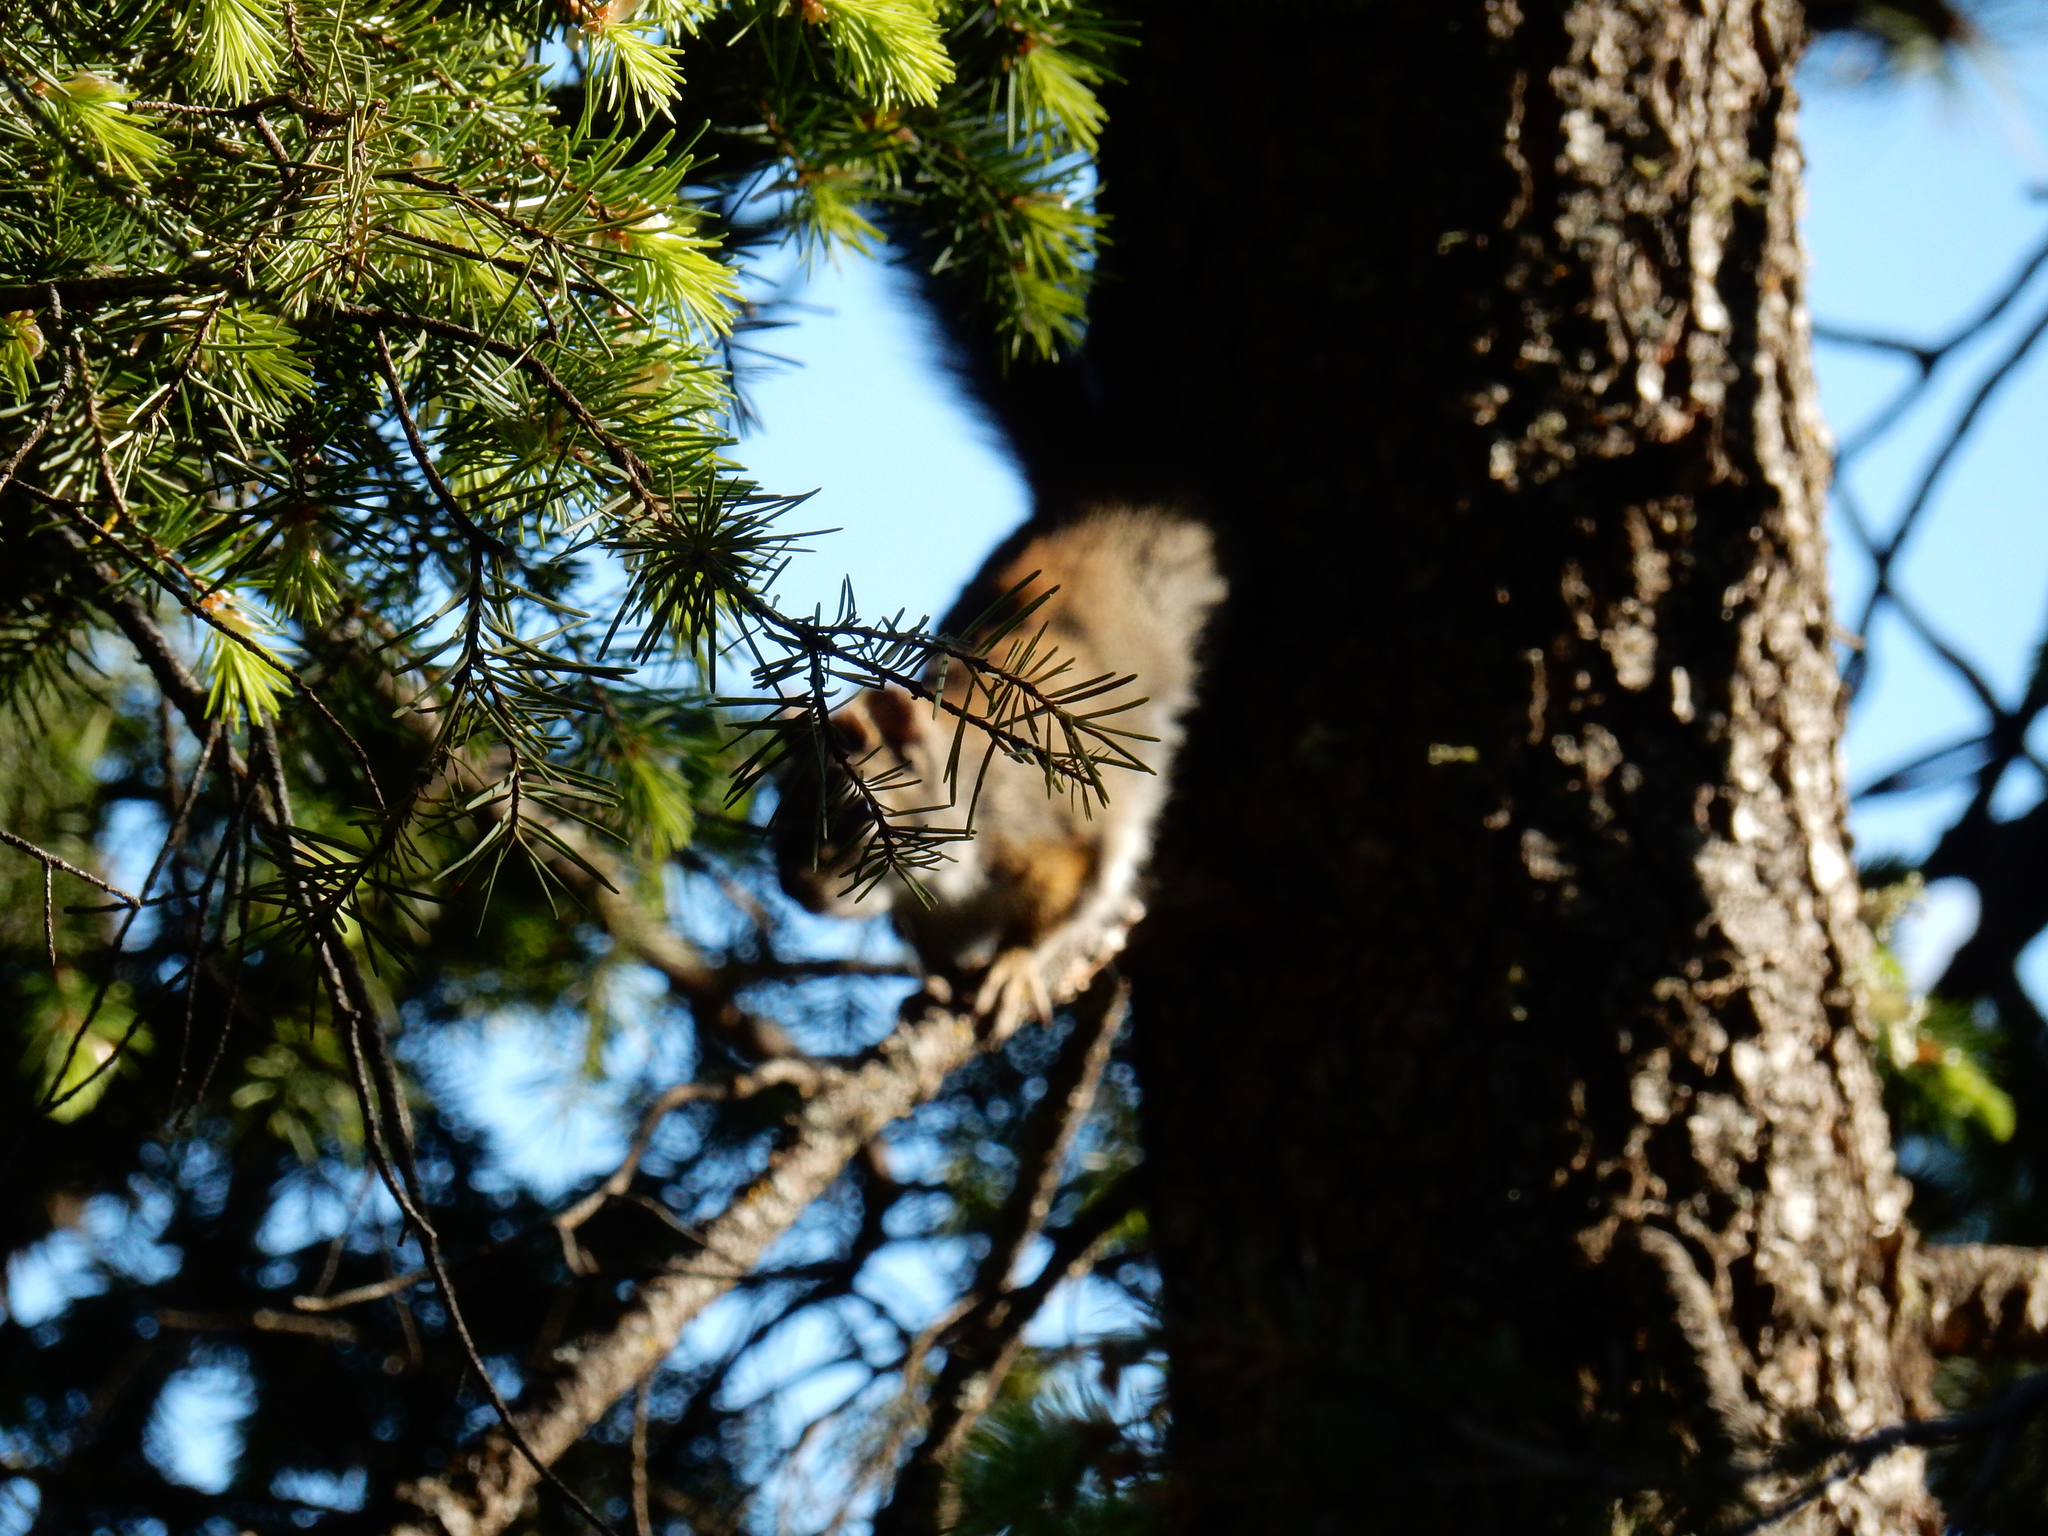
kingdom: Animalia
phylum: Chordata
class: Mammalia
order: Rodentia
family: Sciuridae
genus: Tamiasciurus
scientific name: Tamiasciurus hudsonicus
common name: Red squirrel
